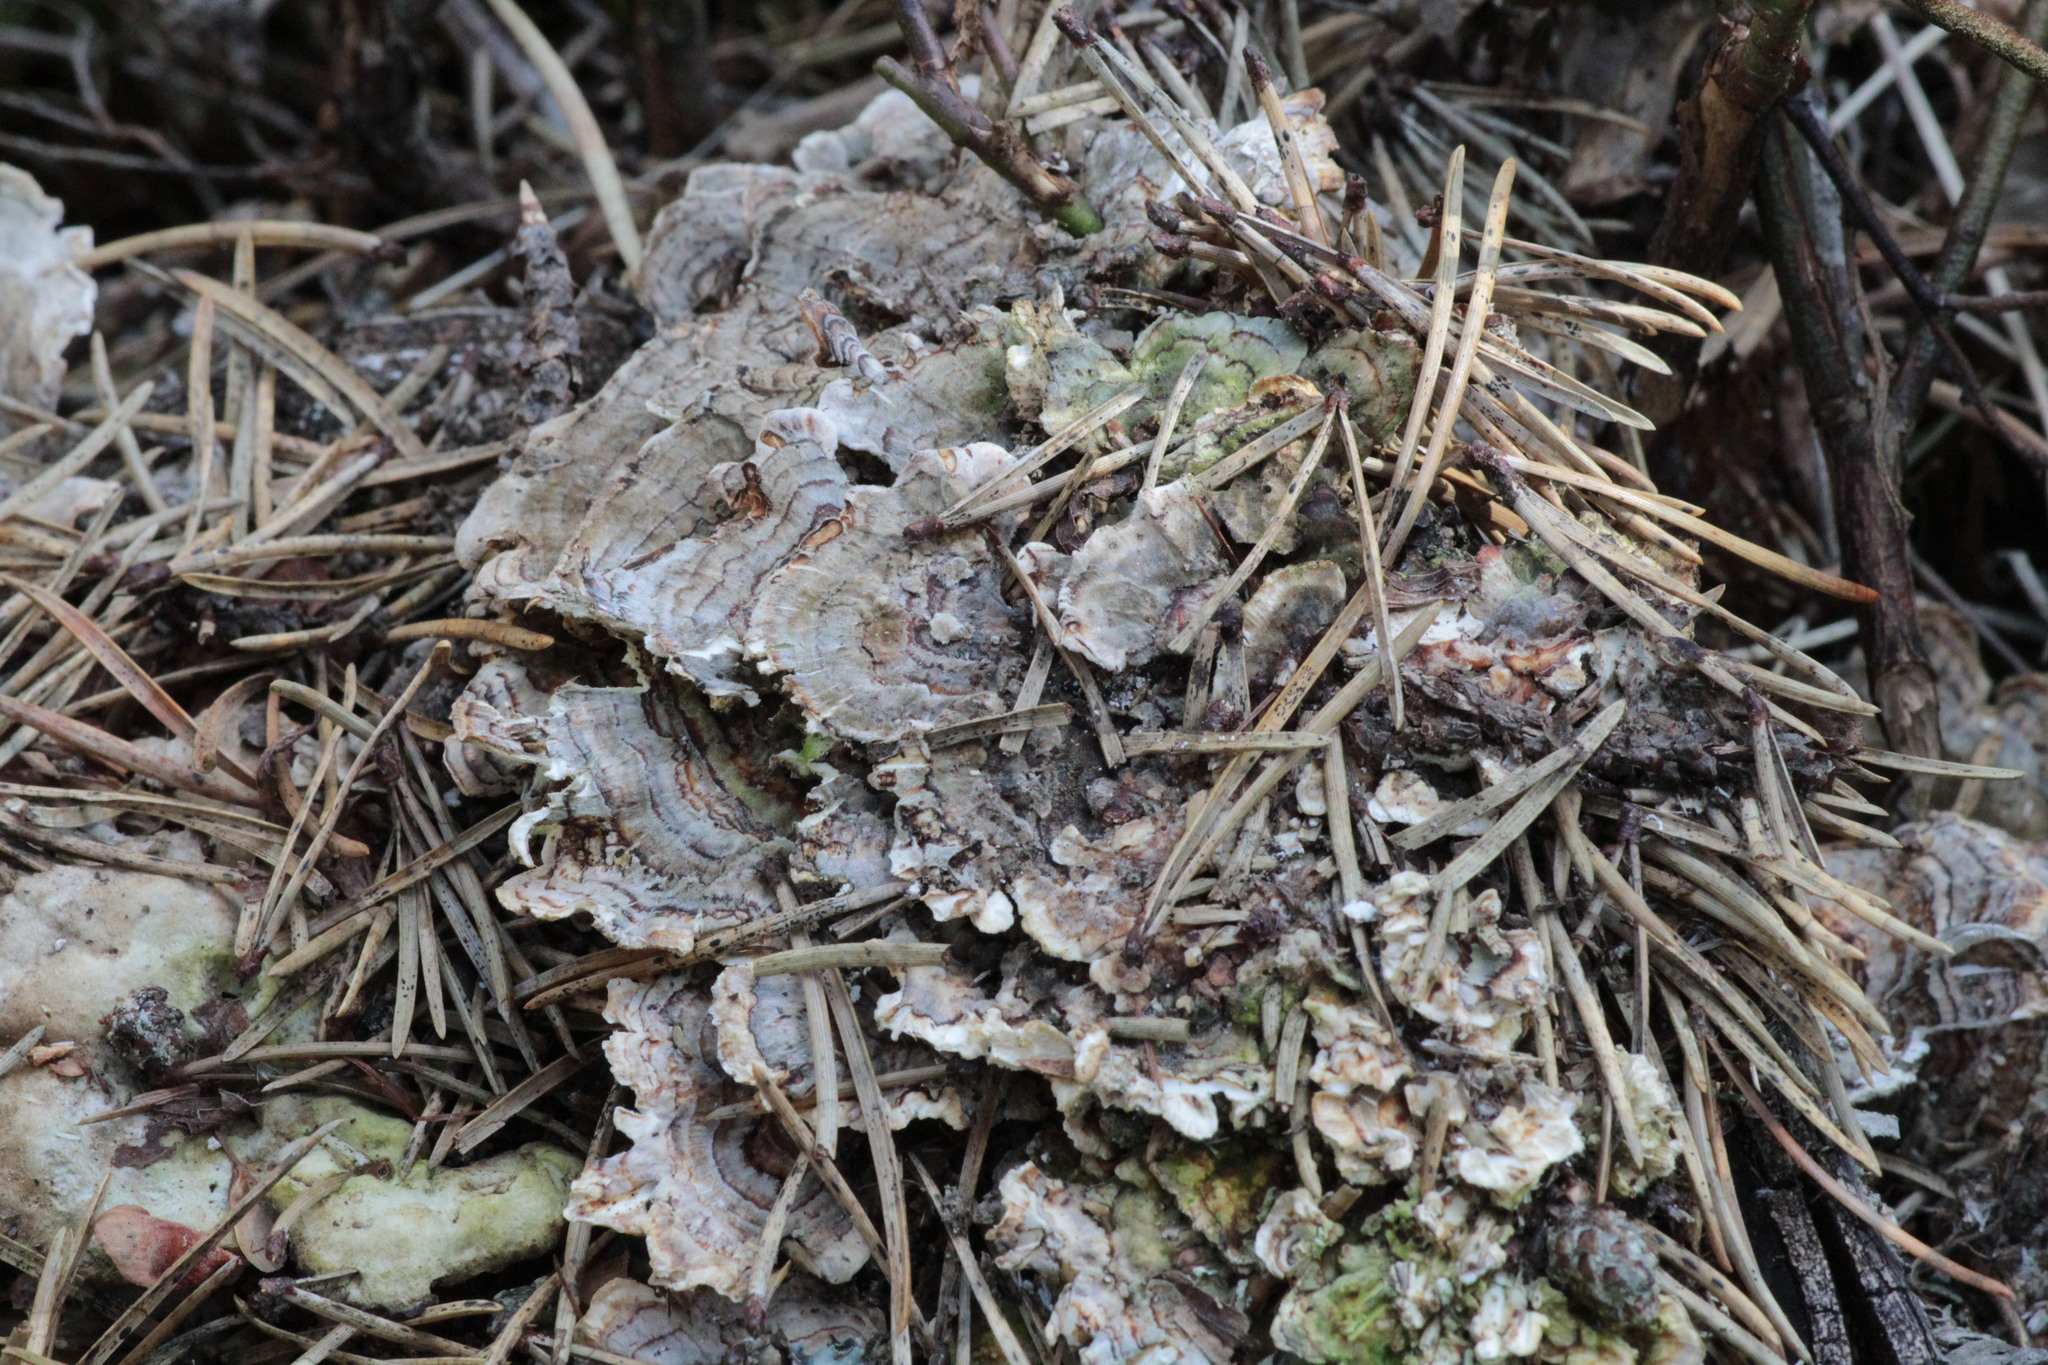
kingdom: Fungi
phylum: Basidiomycota
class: Agaricomycetes
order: Polyporales
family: Polyporaceae
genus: Trametes
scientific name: Trametes versicolor
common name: Turkeytail
